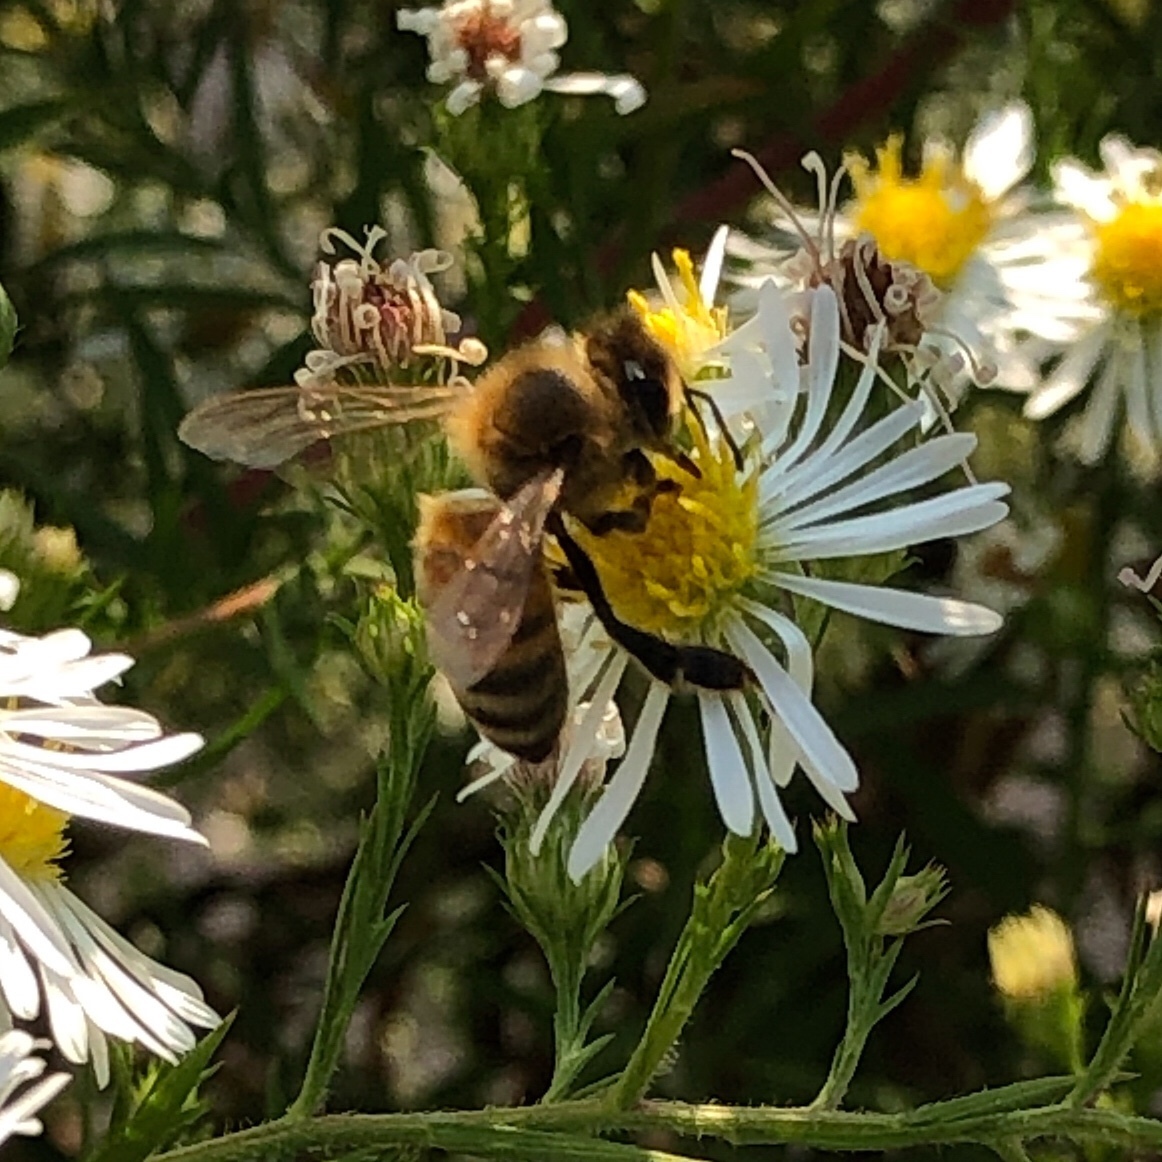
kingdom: Animalia
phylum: Arthropoda
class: Insecta
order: Hymenoptera
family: Apidae
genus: Apis
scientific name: Apis mellifera
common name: Honey bee
